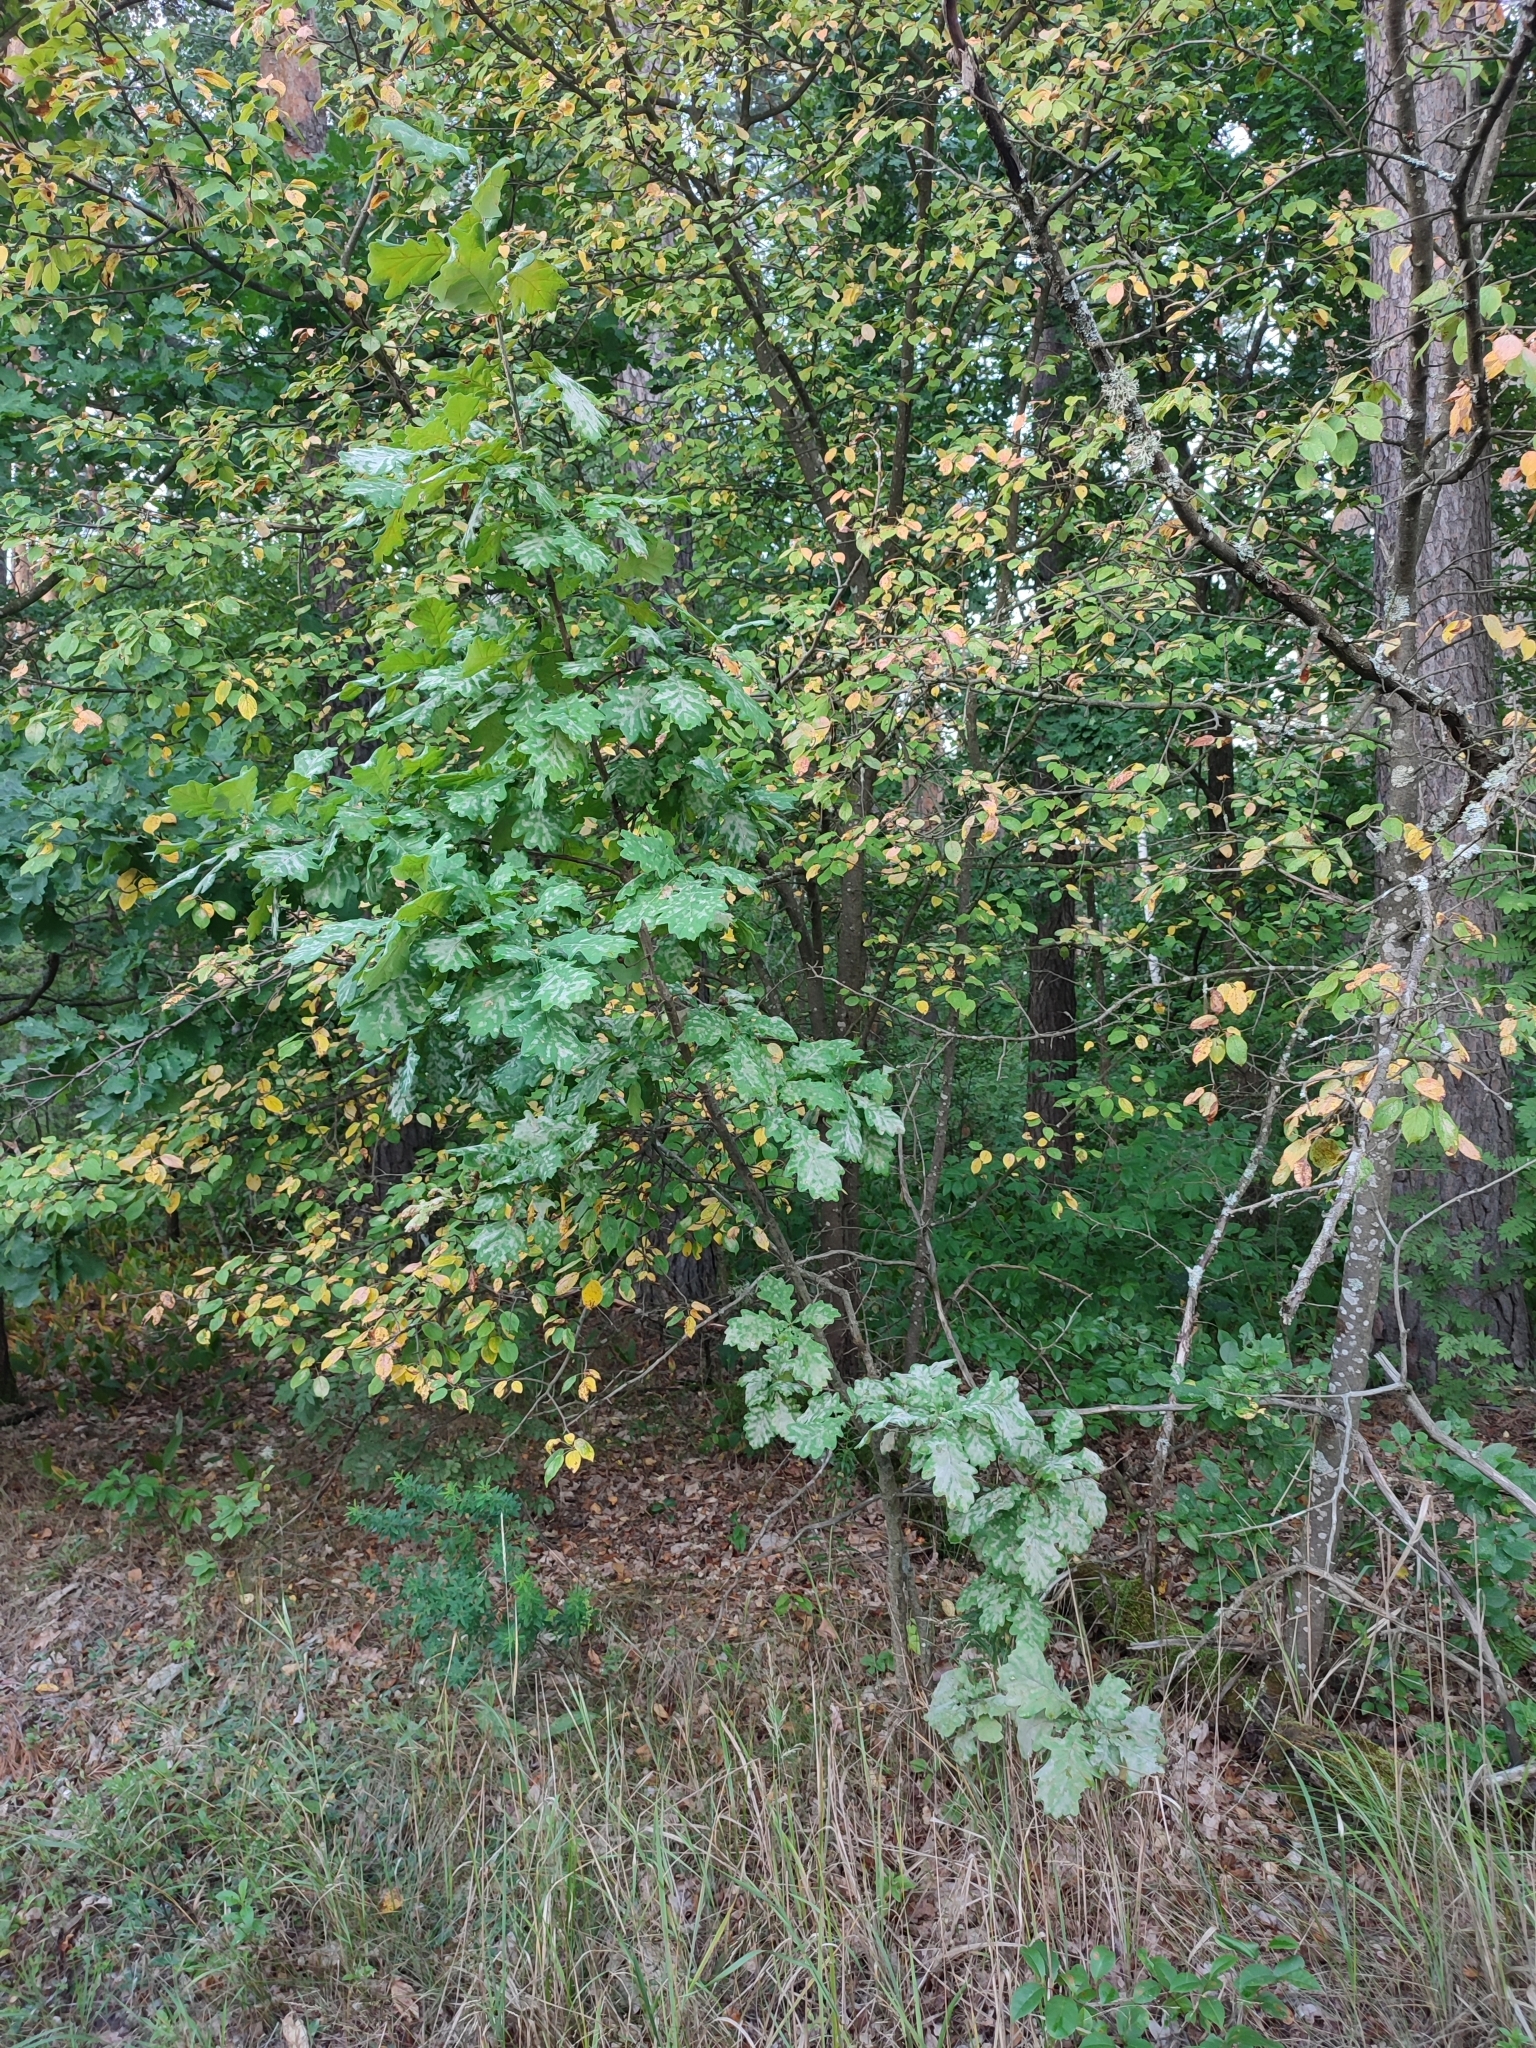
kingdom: Plantae
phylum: Tracheophyta
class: Magnoliopsida
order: Fagales
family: Fagaceae
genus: Quercus
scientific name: Quercus robur
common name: Pedunculate oak
